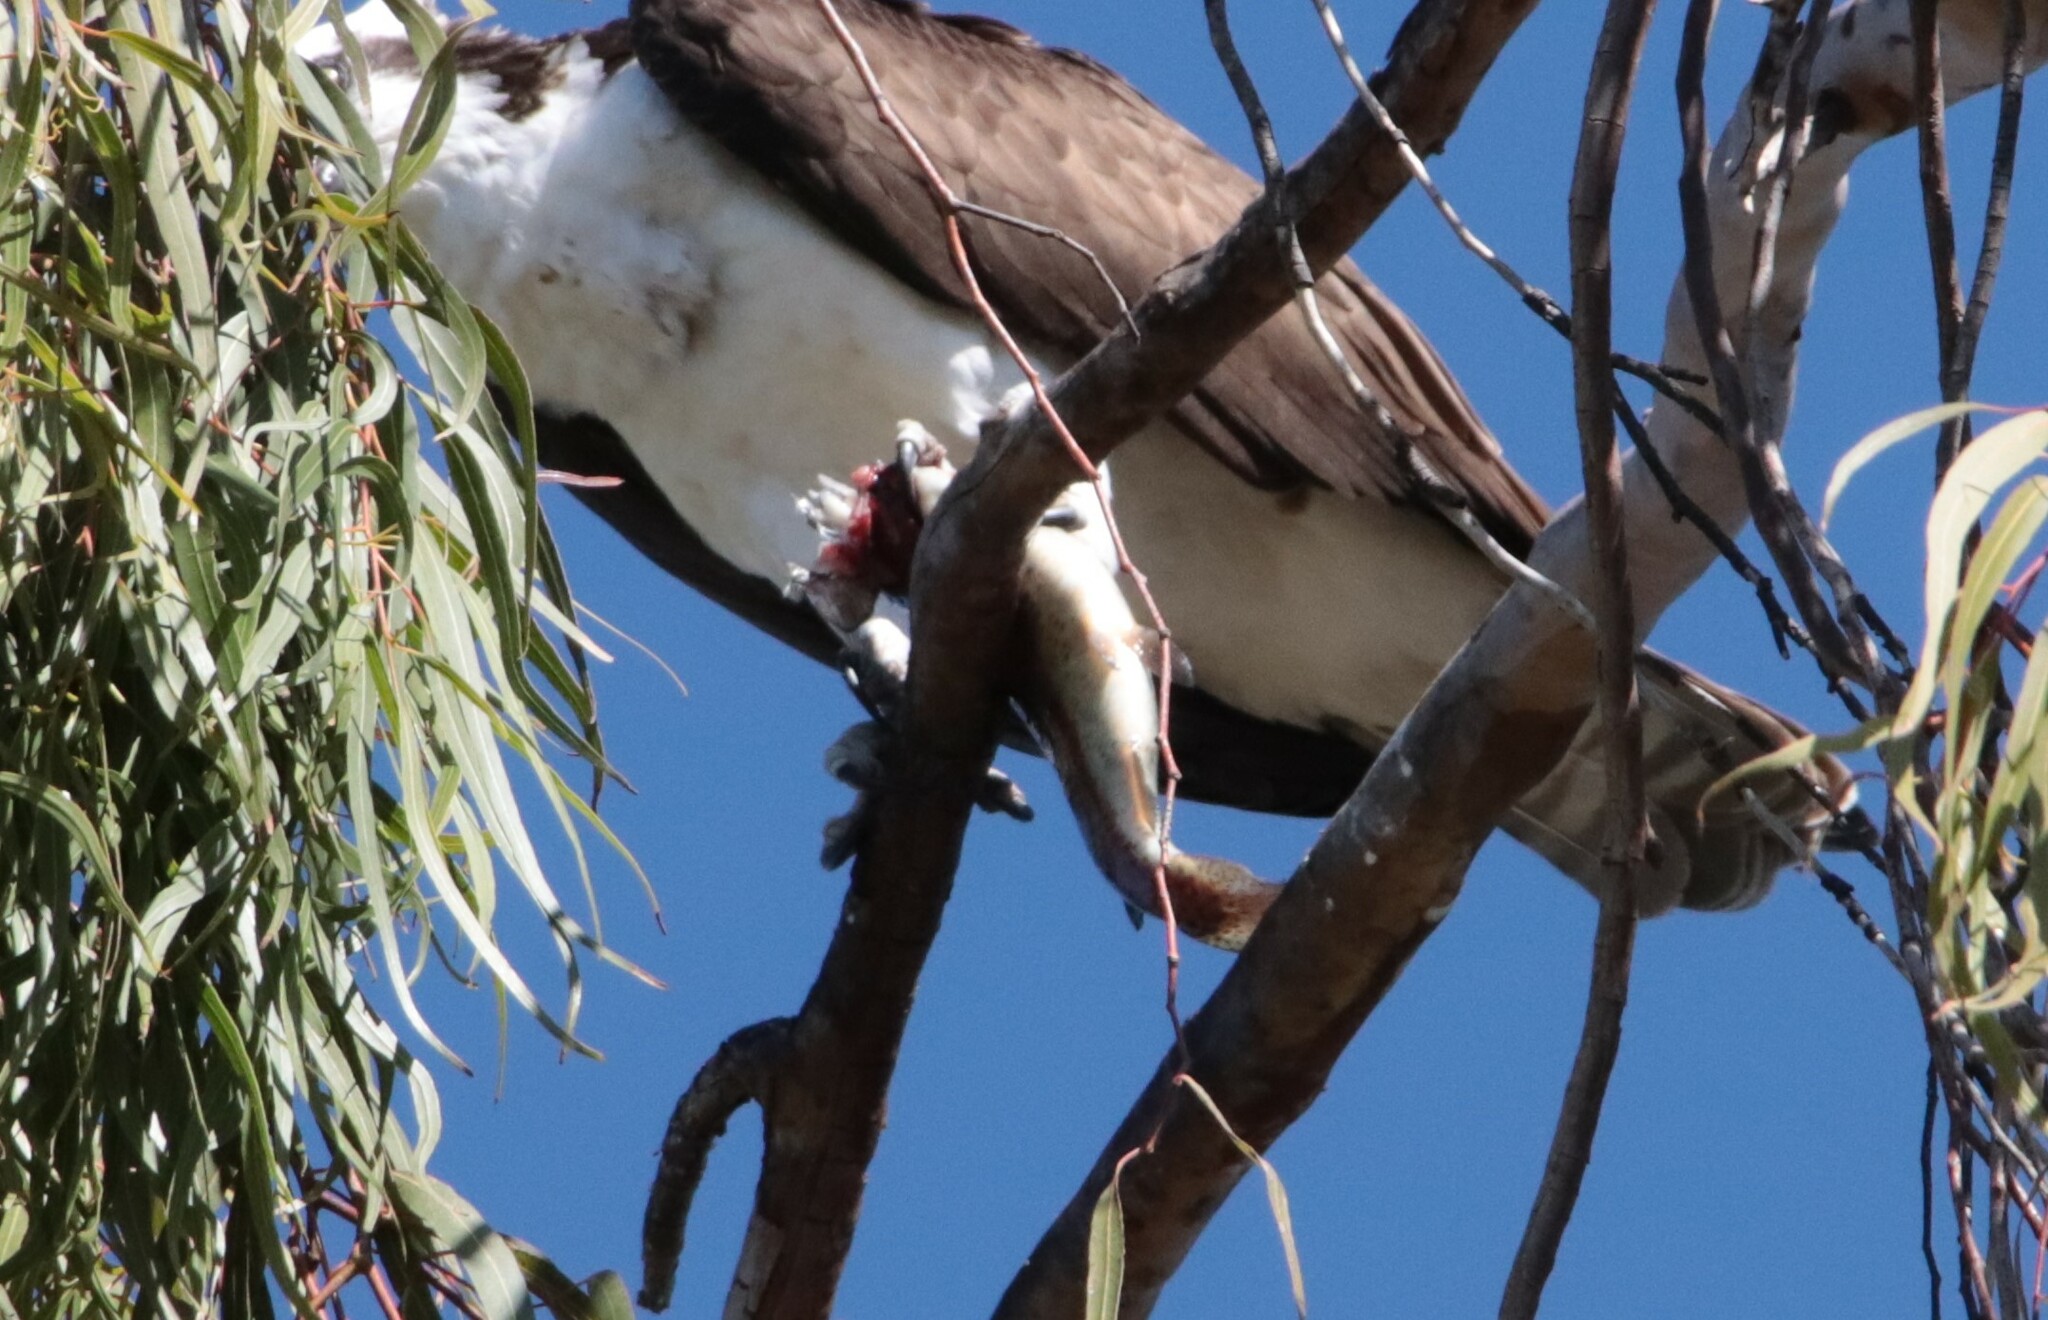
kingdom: Animalia
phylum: Chordata
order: Salmoniformes
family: Salmonidae
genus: Oncorhynchus
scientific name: Oncorhynchus mykiss
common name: Rainbow trout
